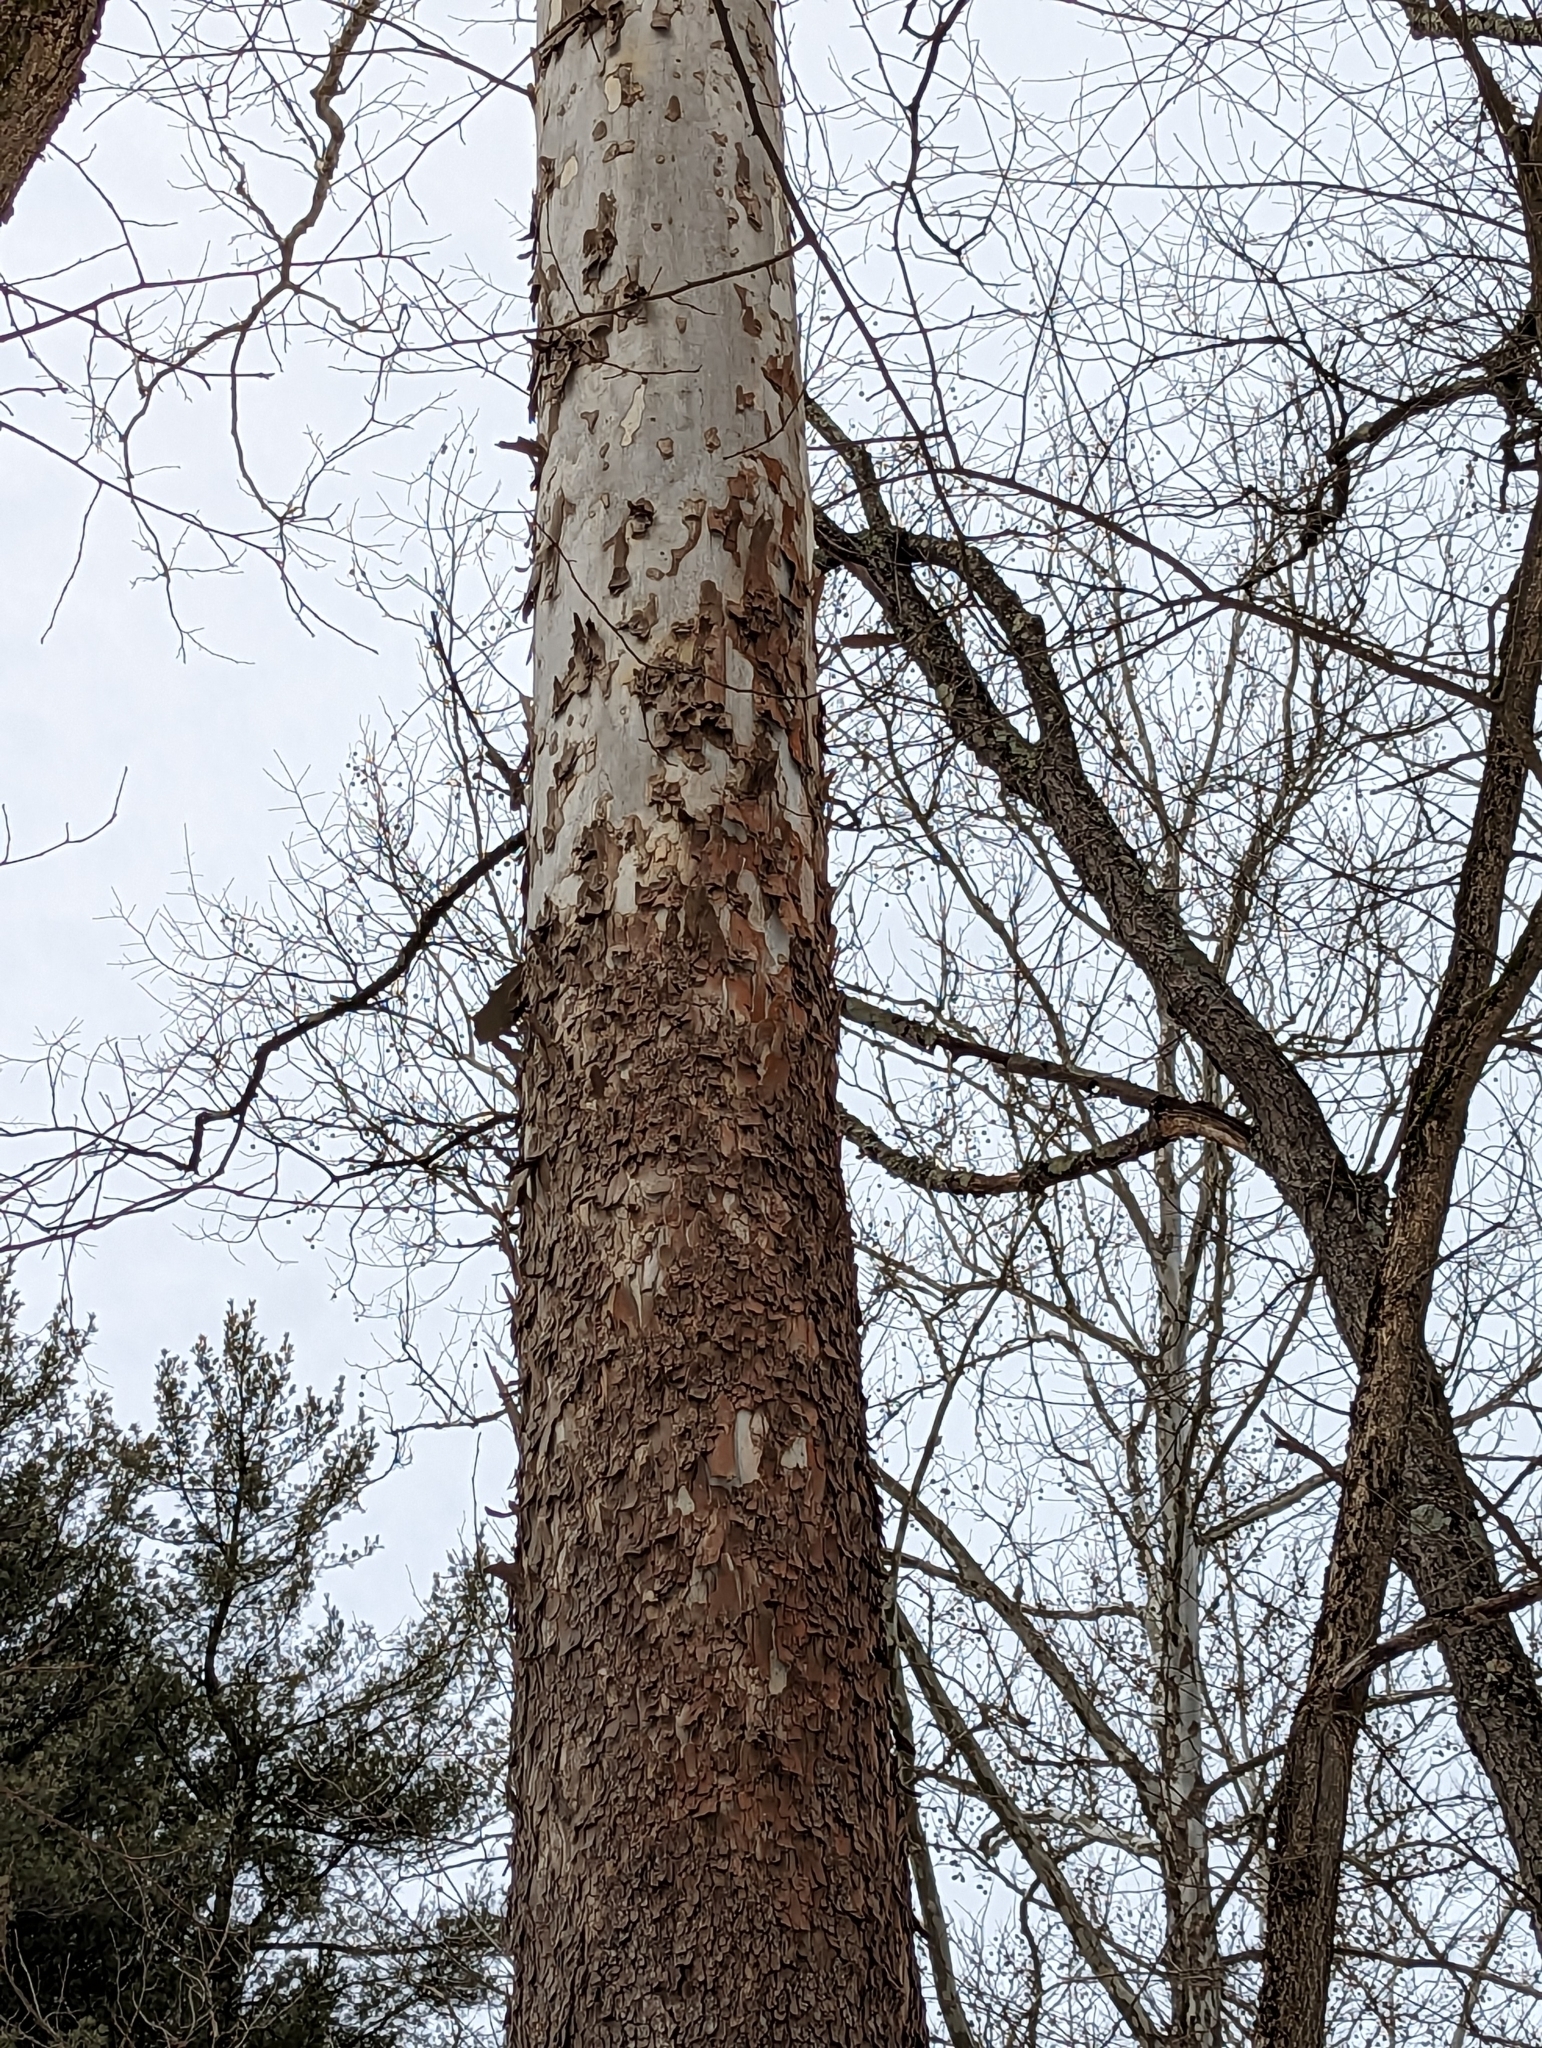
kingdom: Plantae
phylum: Tracheophyta
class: Magnoliopsida
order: Proteales
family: Platanaceae
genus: Platanus
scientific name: Platanus occidentalis
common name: American sycamore
